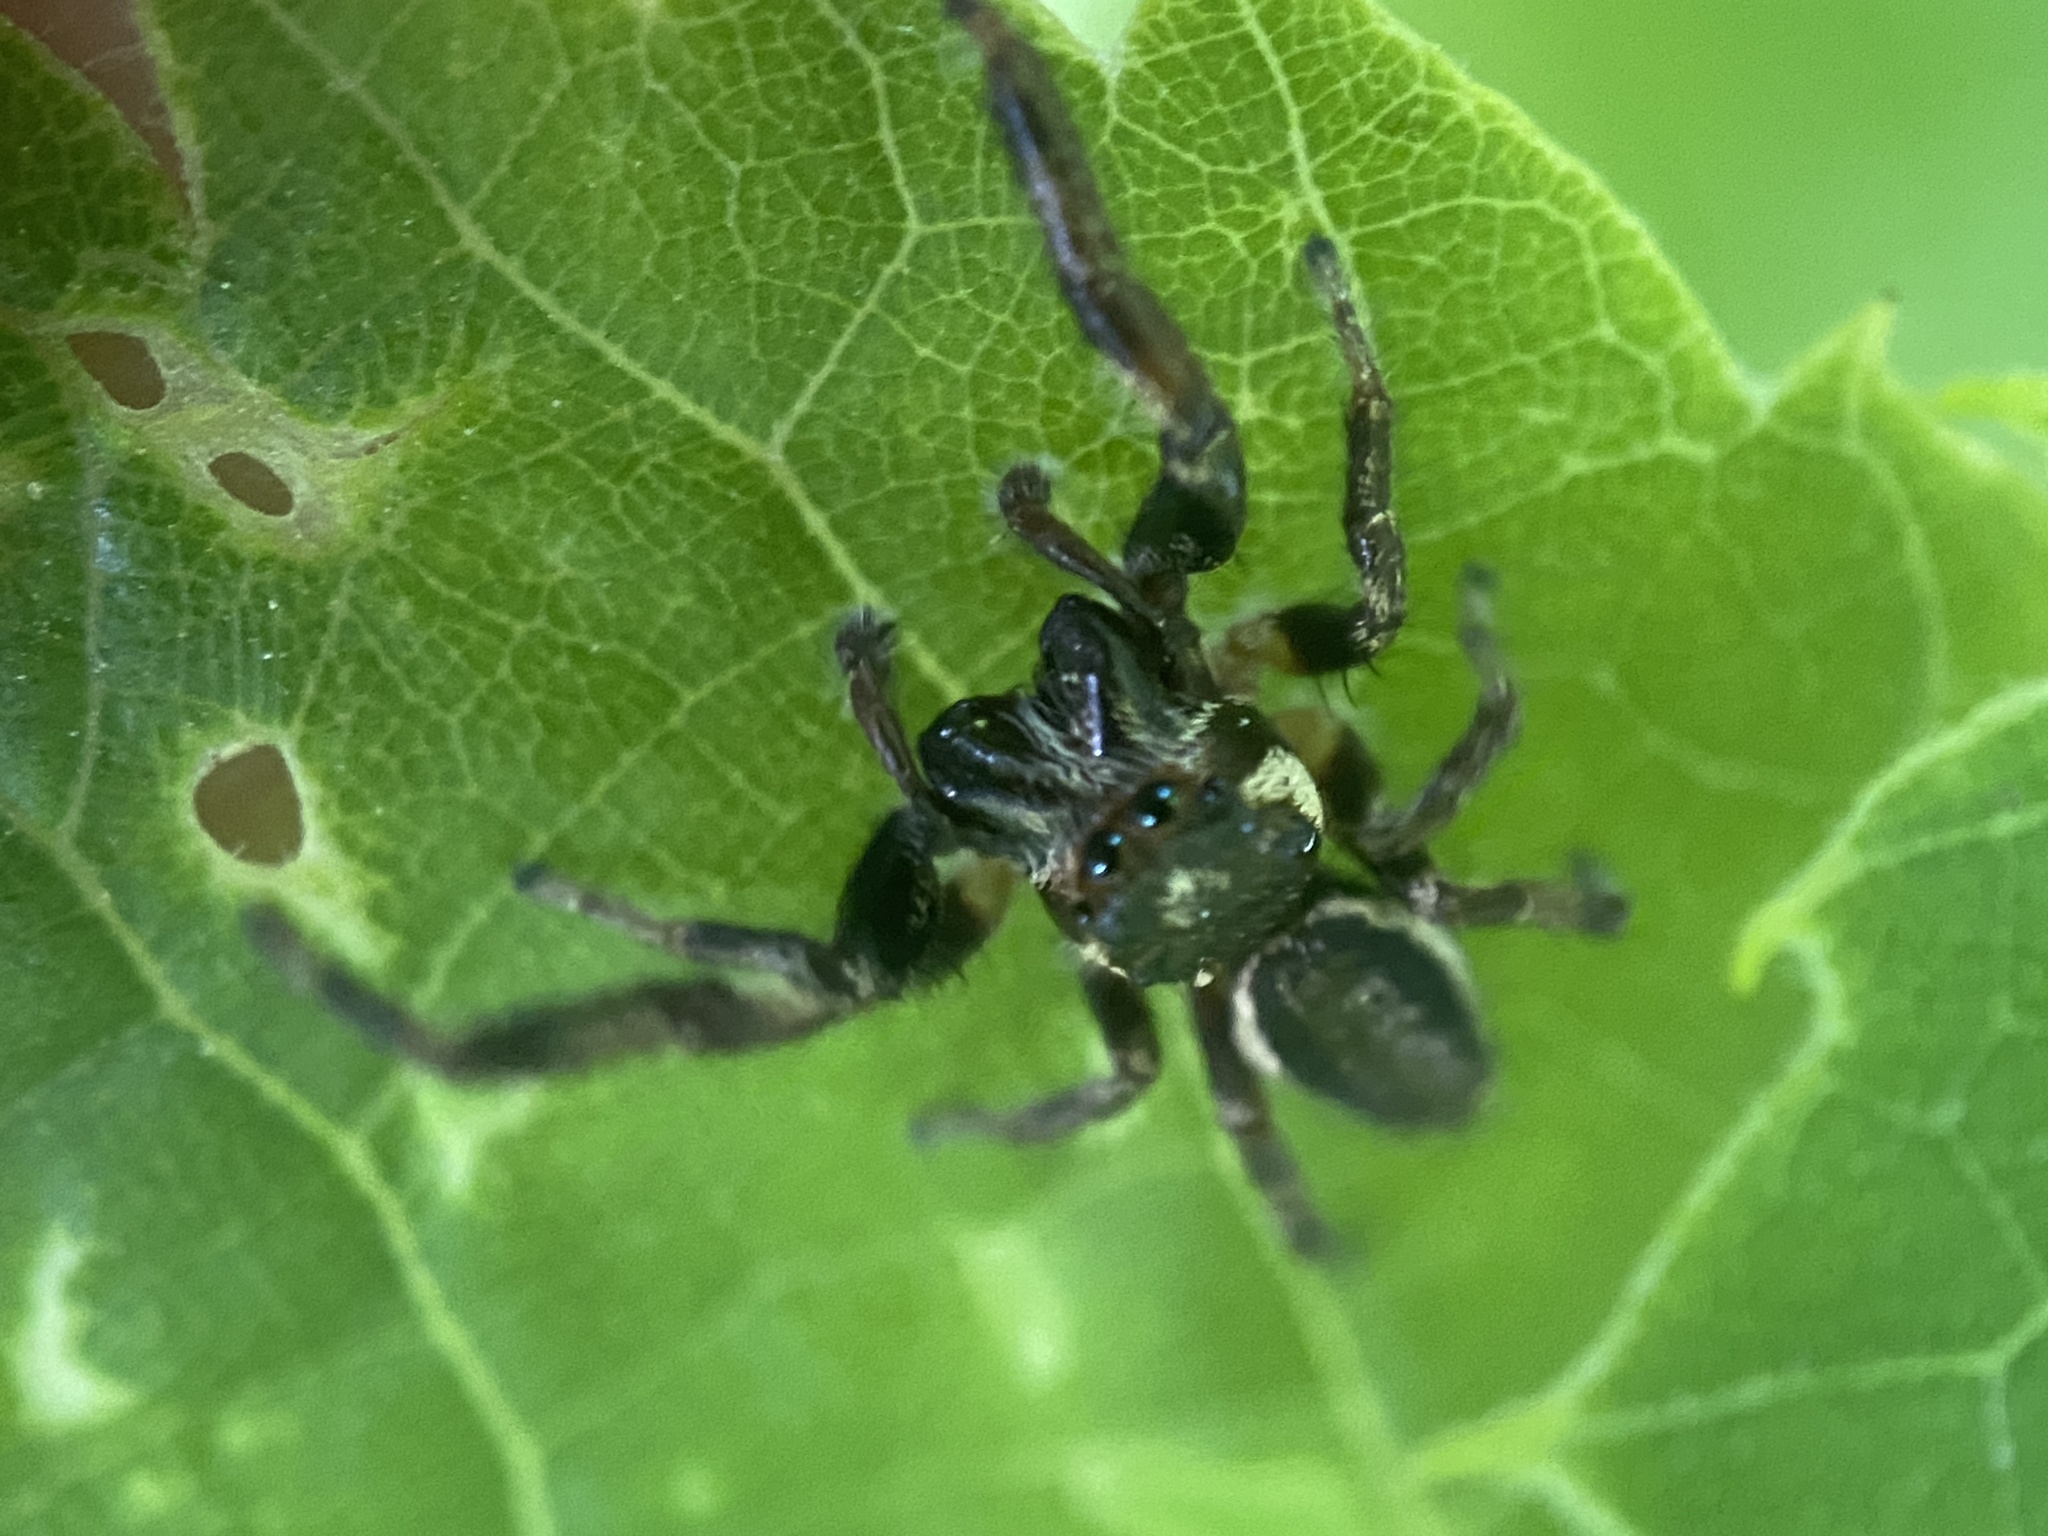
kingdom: Animalia
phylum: Arthropoda
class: Arachnida
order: Araneae
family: Salticidae
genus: Eris
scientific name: Eris militaris
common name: Bronze jumper
